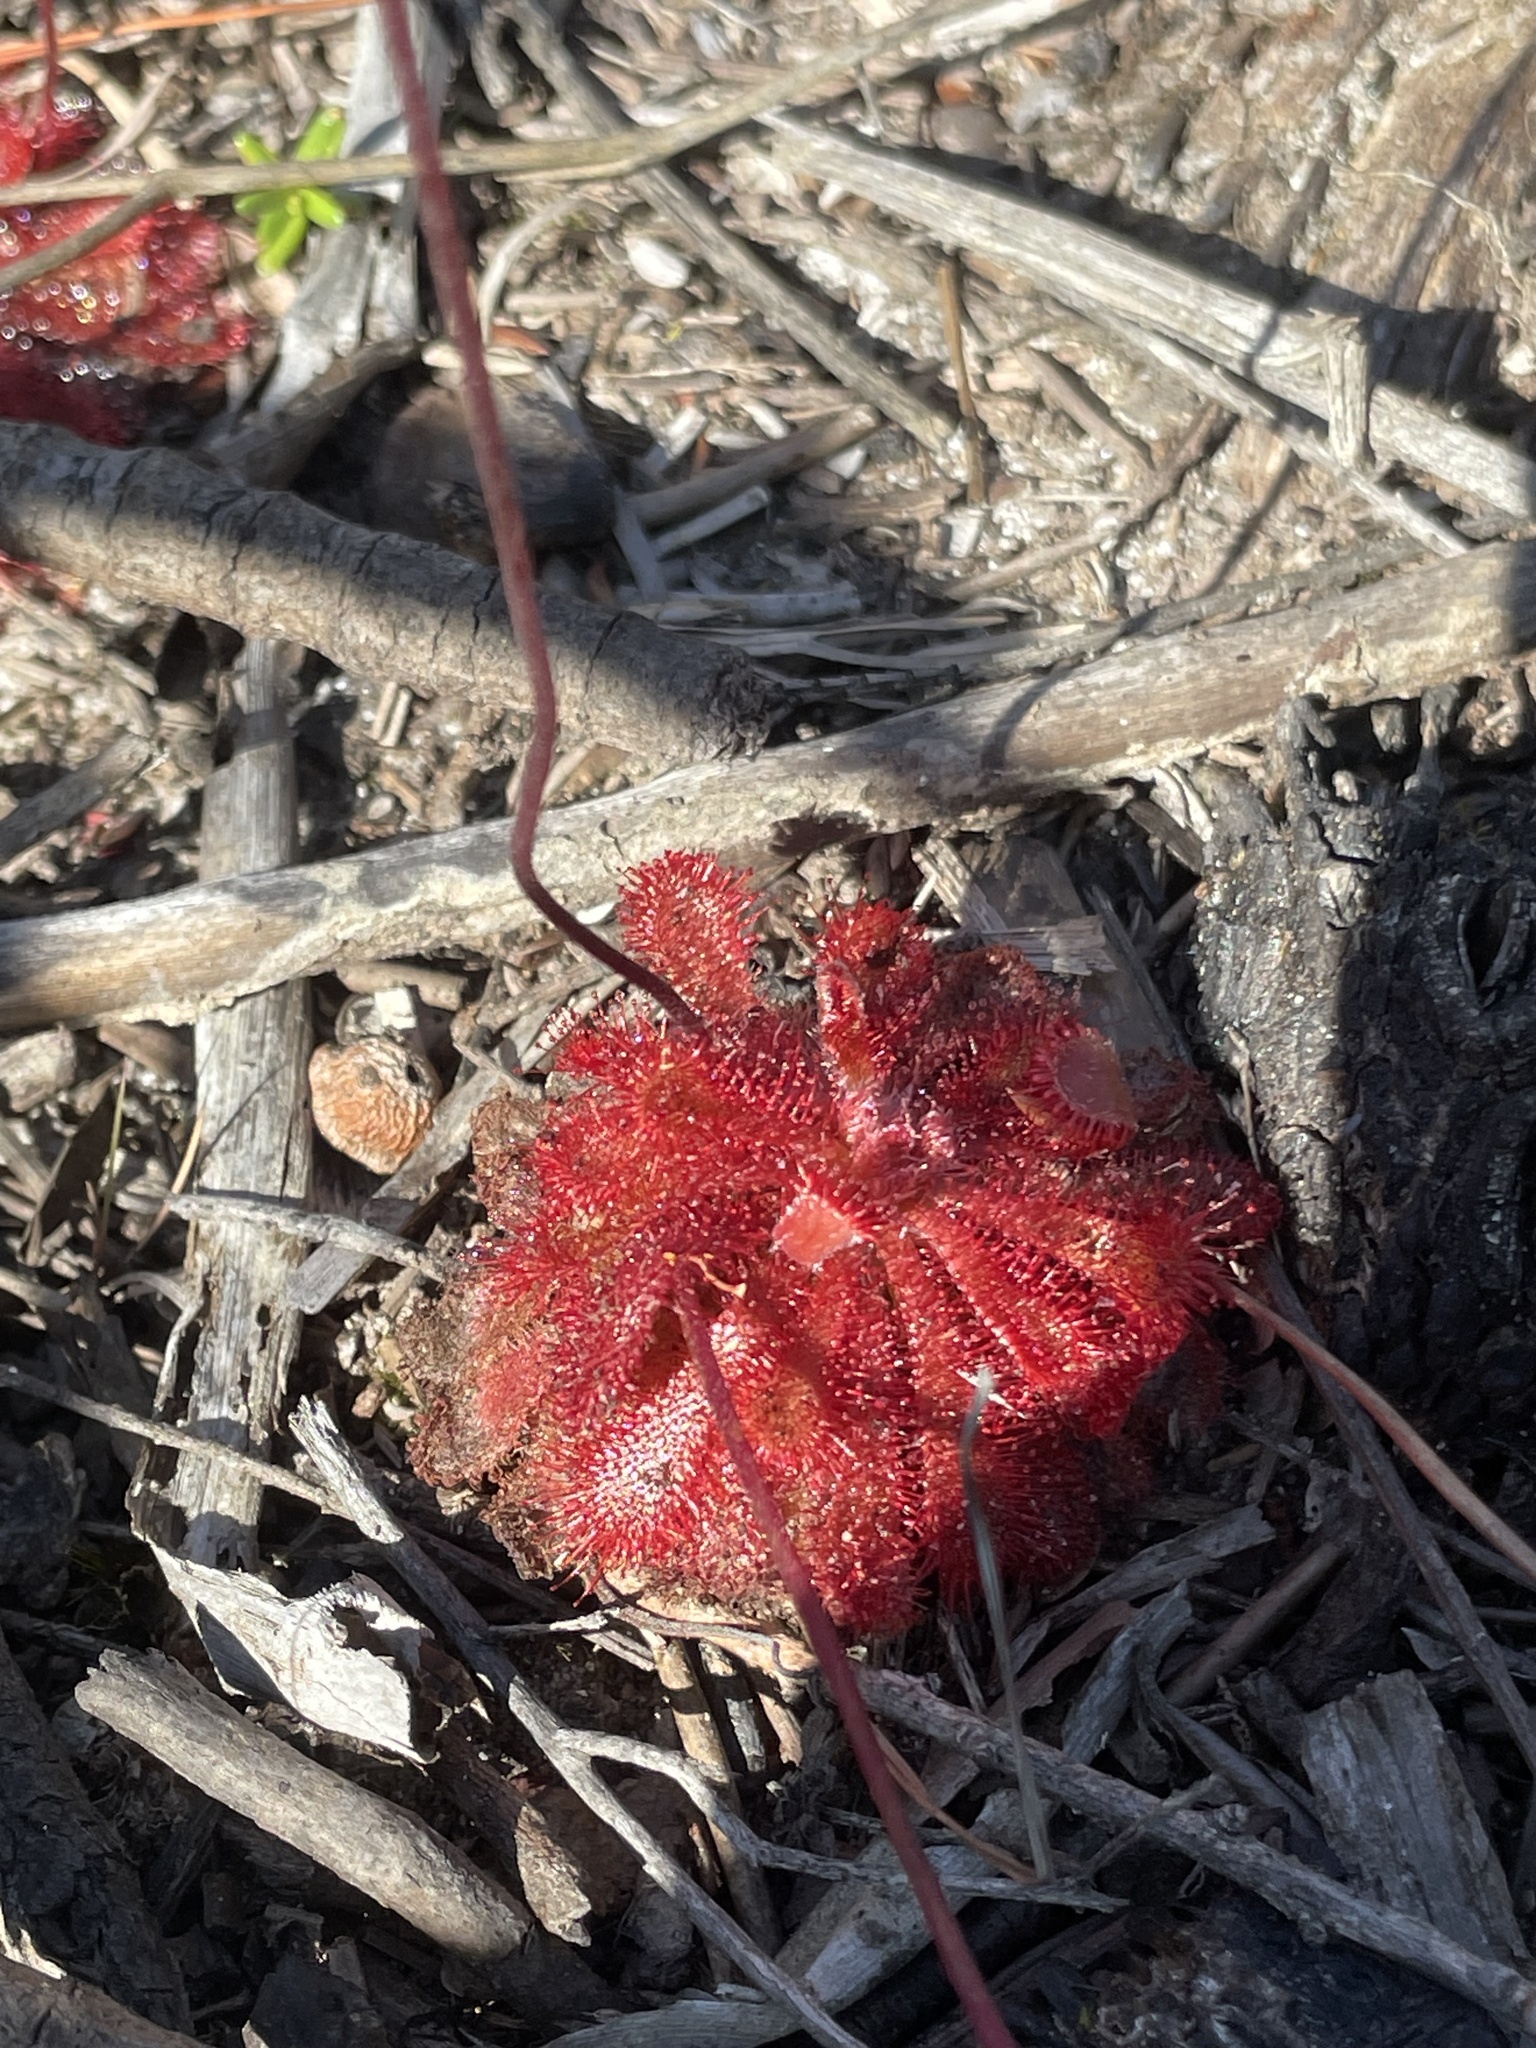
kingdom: Plantae
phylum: Tracheophyta
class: Magnoliopsida
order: Caryophyllales
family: Droseraceae
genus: Drosera
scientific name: Drosera spatulata
